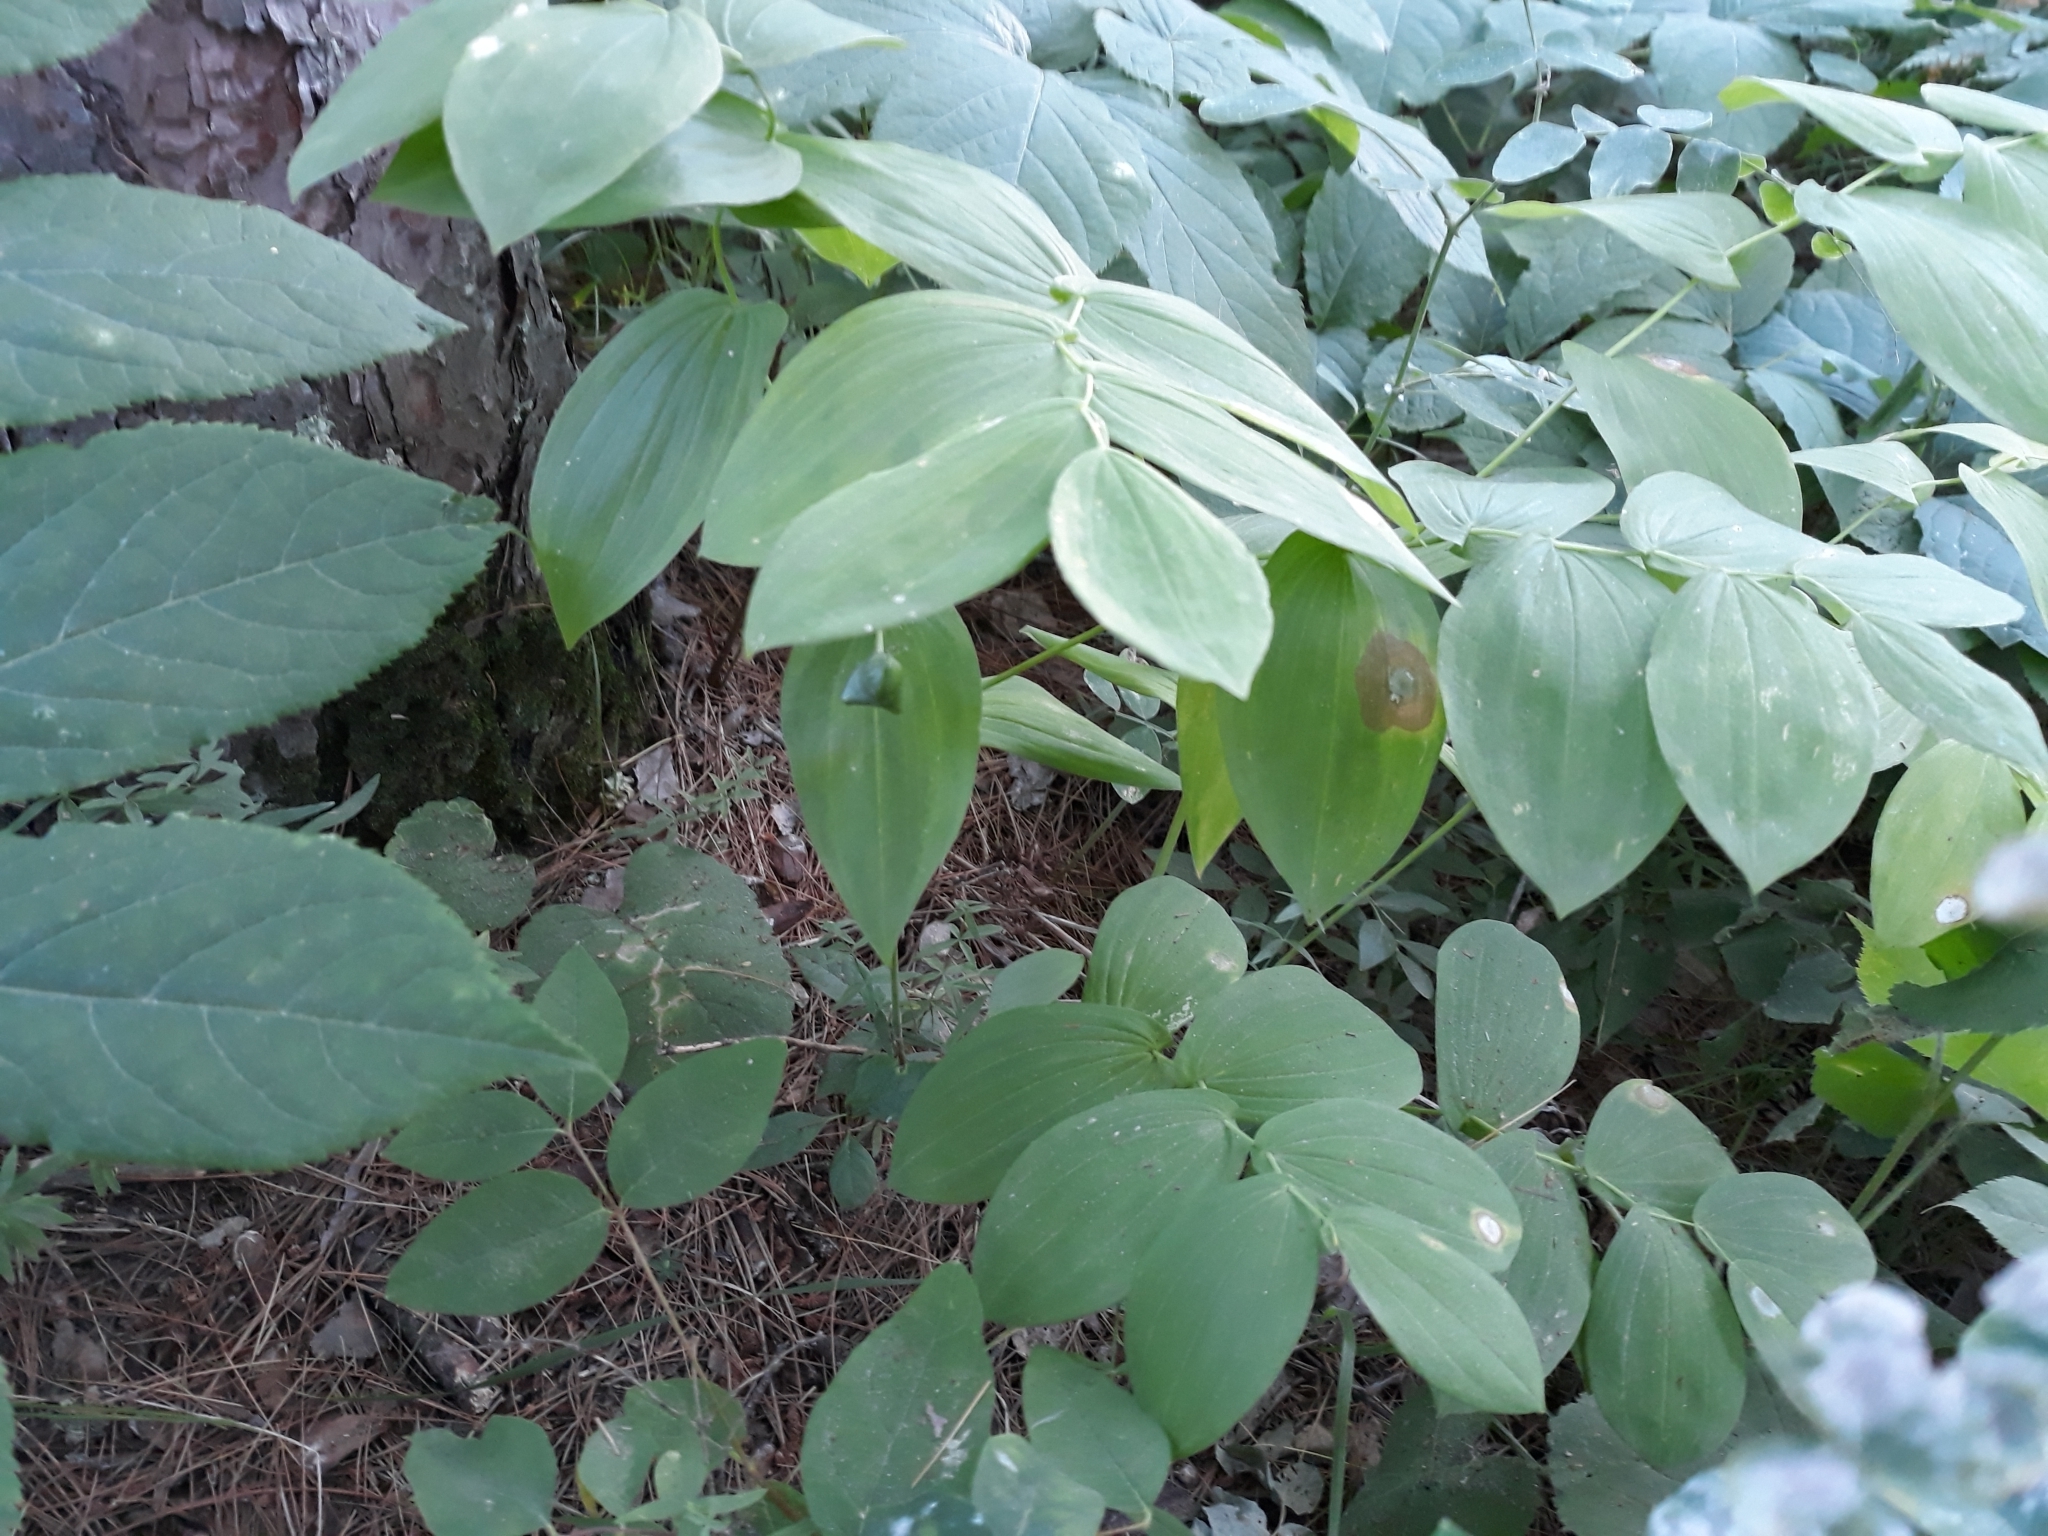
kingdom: Plantae
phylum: Tracheophyta
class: Liliopsida
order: Liliales
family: Colchicaceae
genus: Uvularia
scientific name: Uvularia grandiflora
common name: Bellwort
